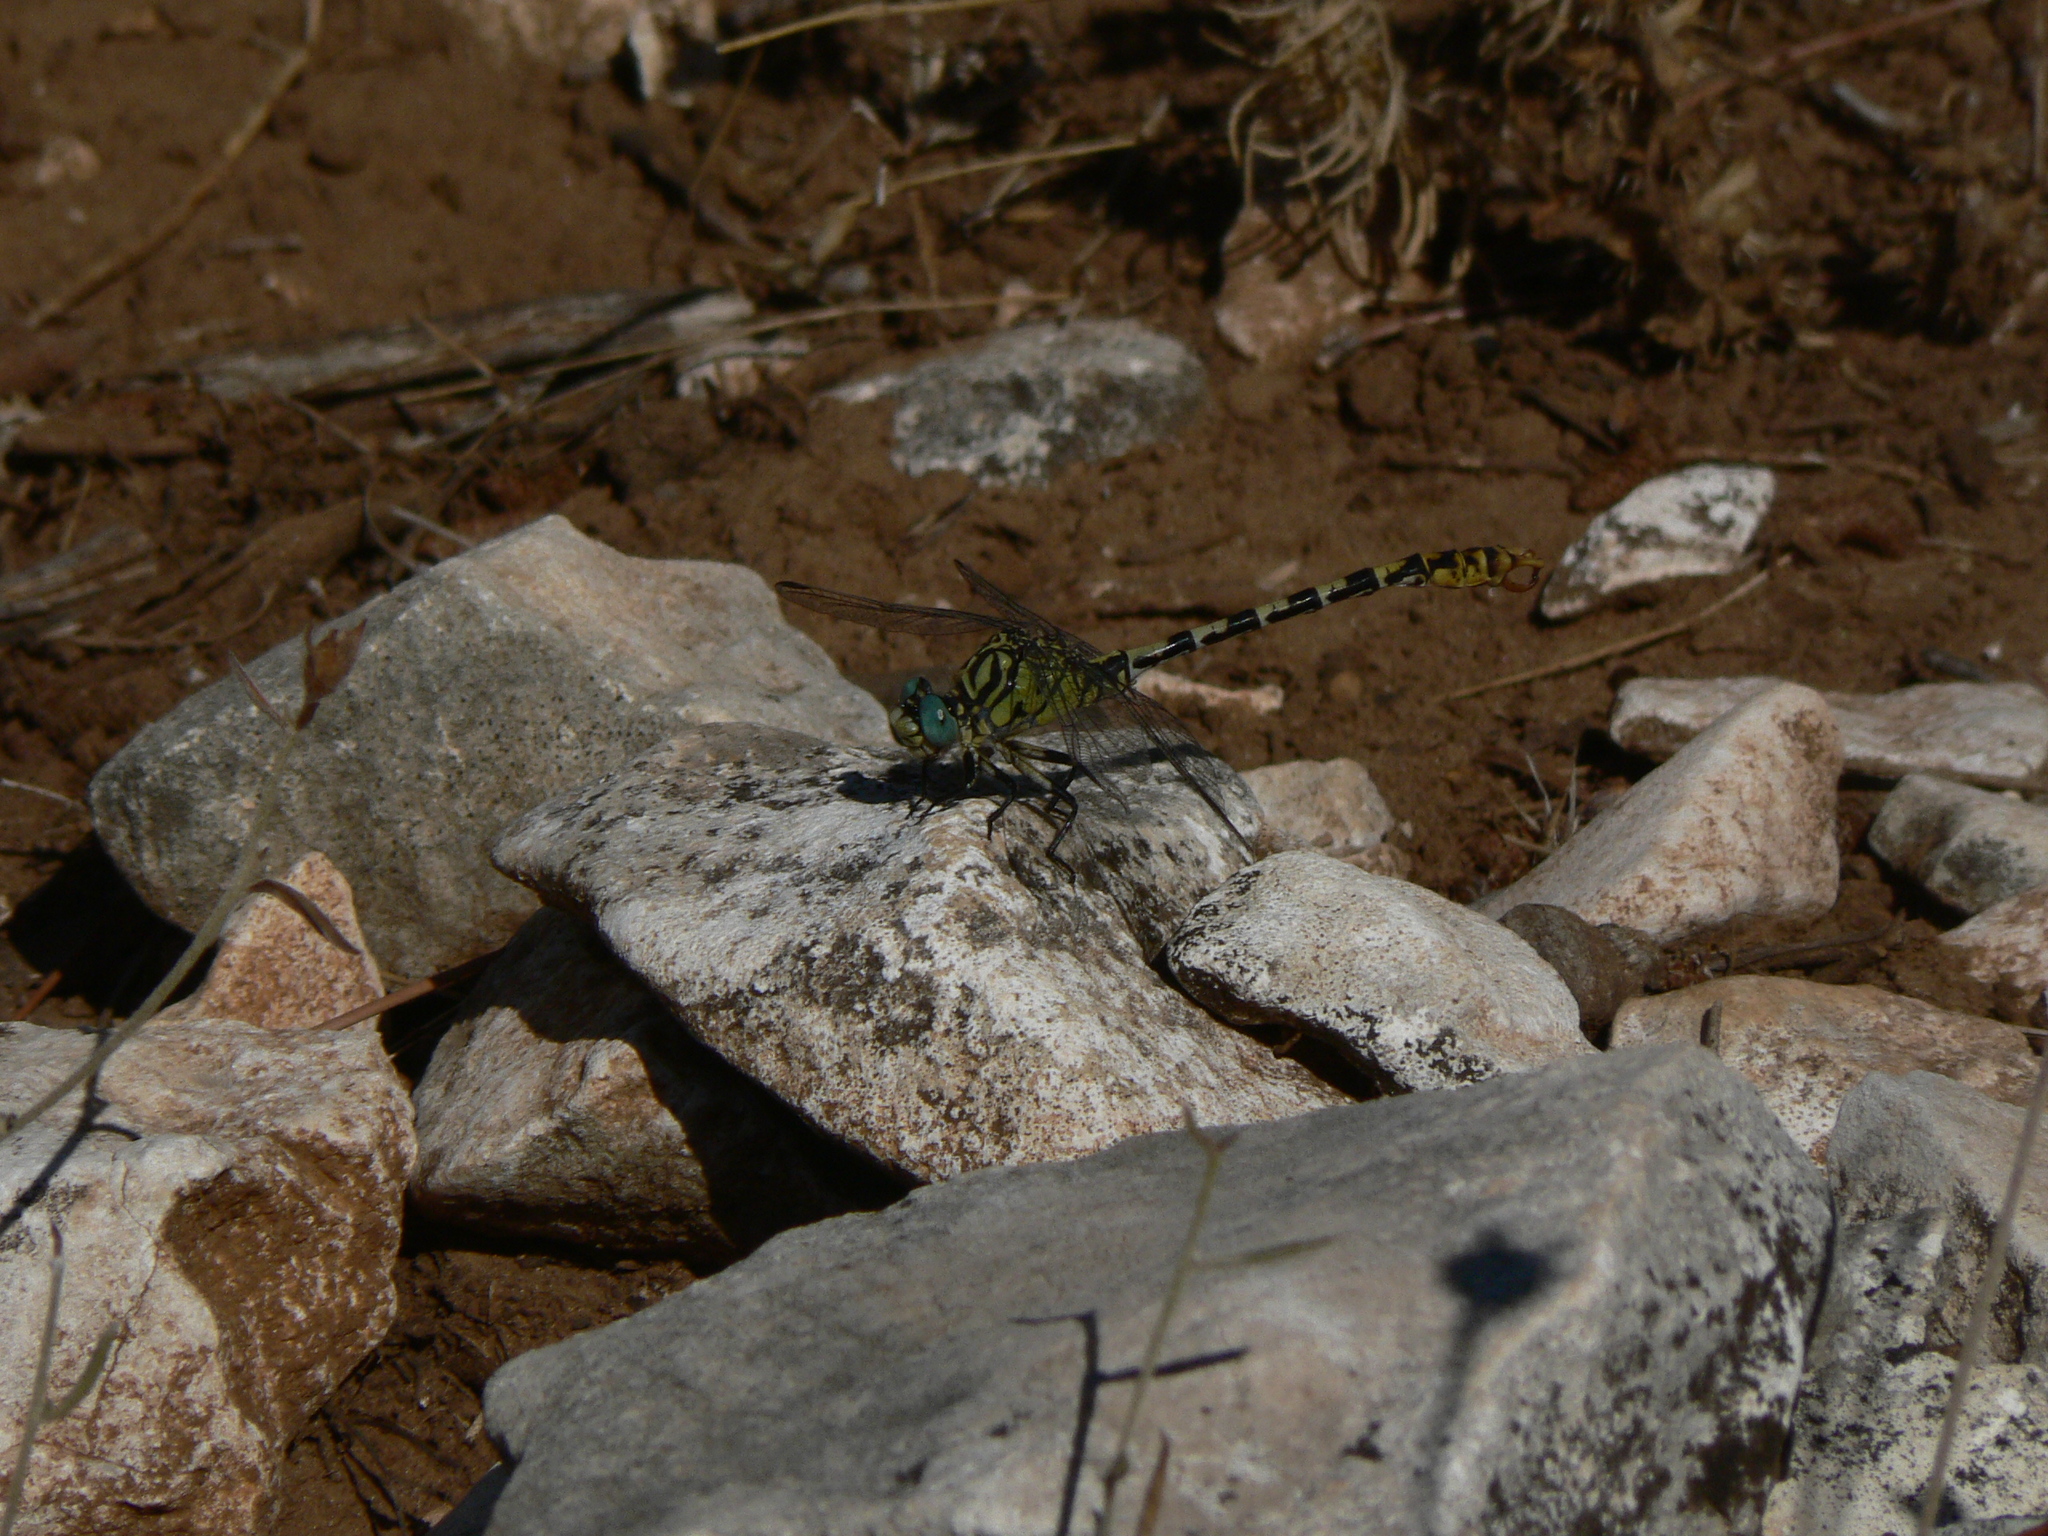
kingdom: Animalia
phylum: Arthropoda
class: Insecta
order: Odonata
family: Gomphidae
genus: Onychogomphus
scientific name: Onychogomphus forcipatus
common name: Small pincertail
